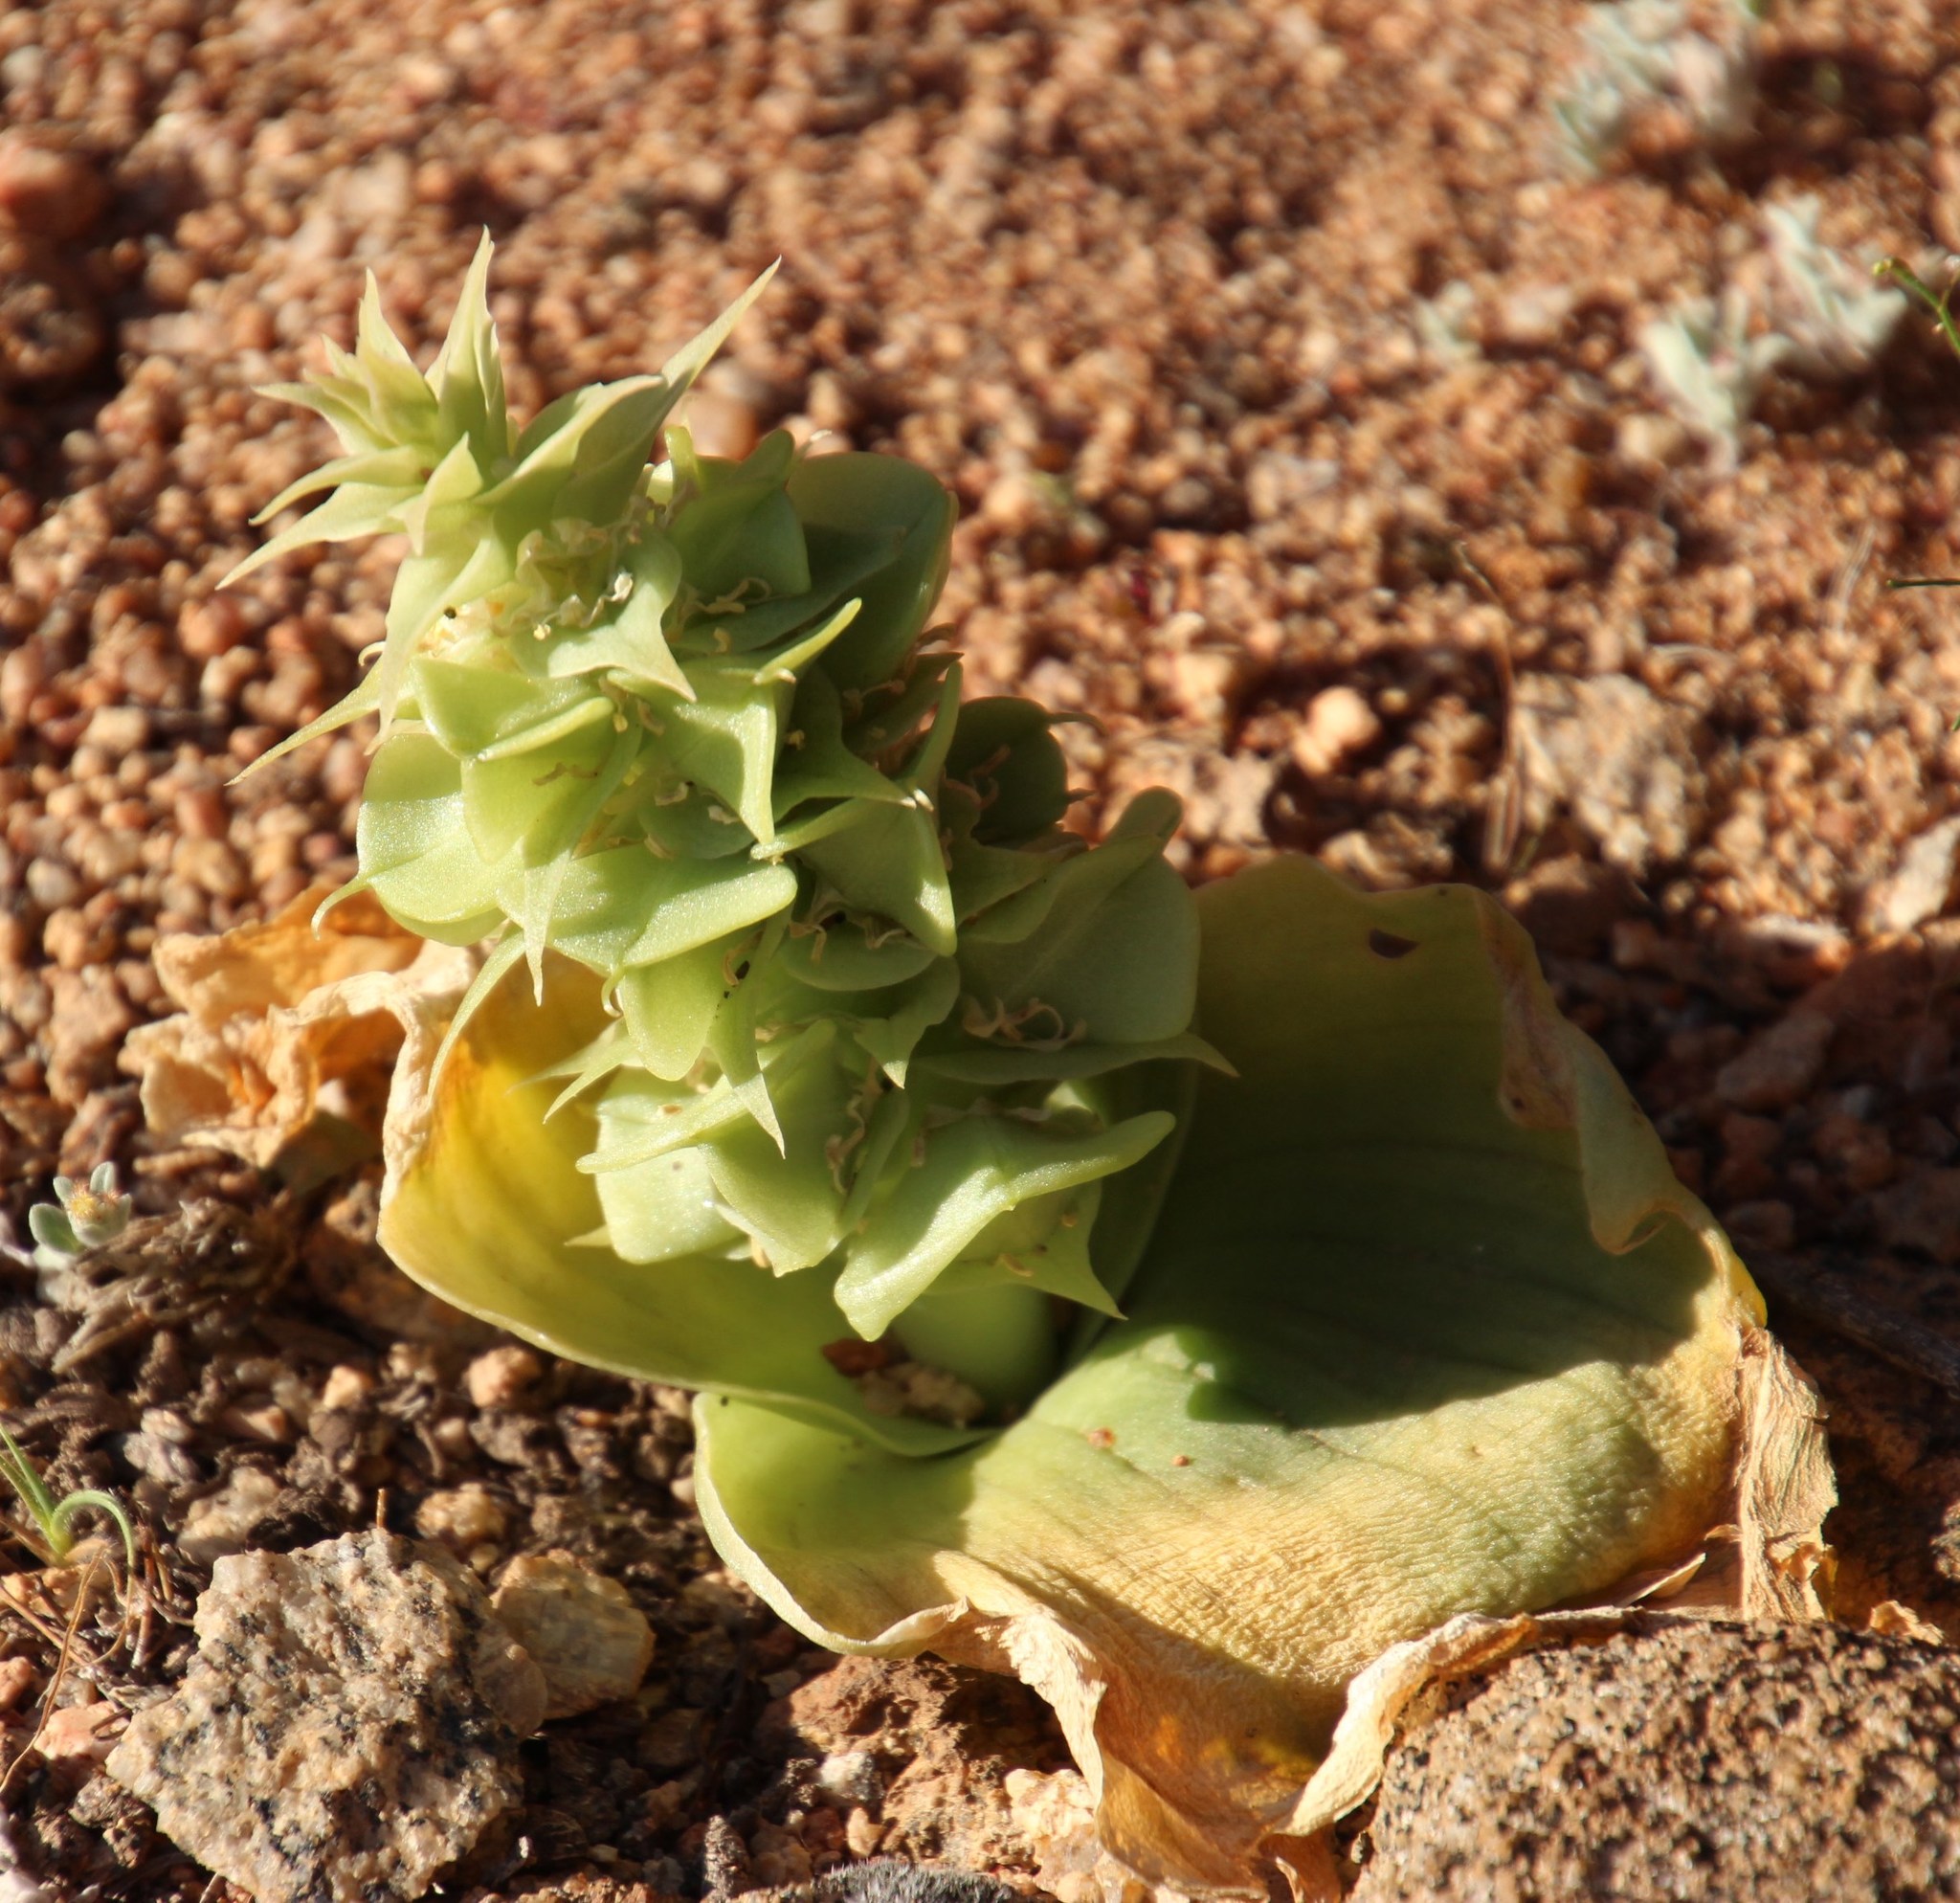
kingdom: Plantae
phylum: Tracheophyta
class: Liliopsida
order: Asparagales
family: Asparagaceae
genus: Massonia
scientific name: Massonia bifolia
